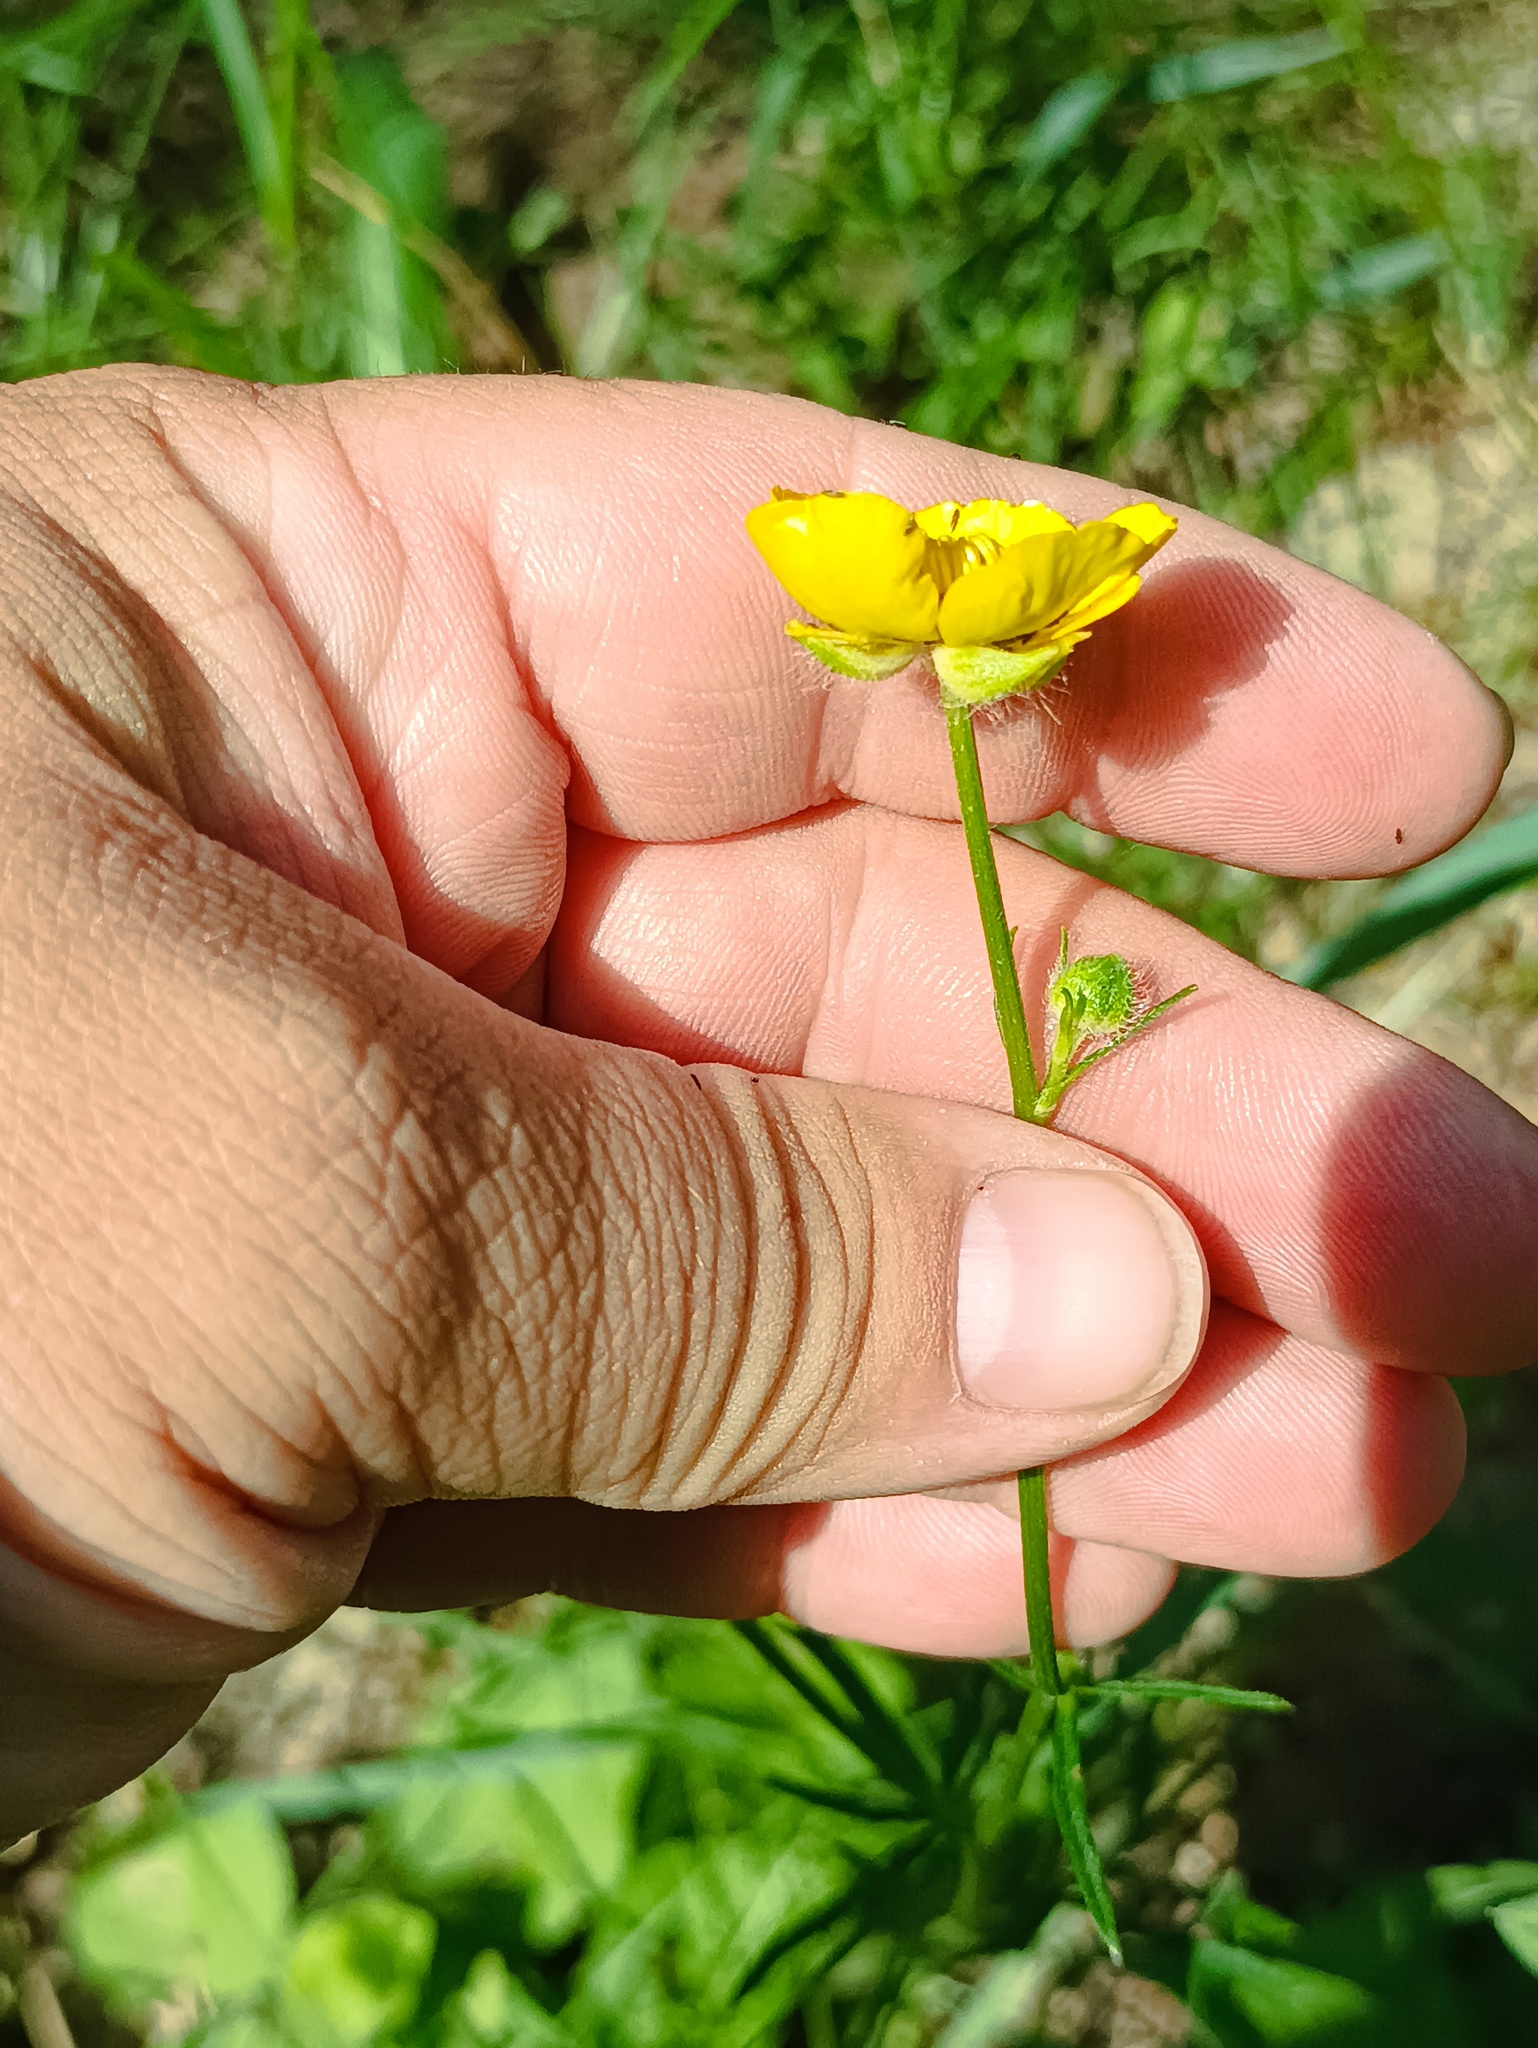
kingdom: Plantae
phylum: Tracheophyta
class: Magnoliopsida
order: Ranunculales
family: Ranunculaceae
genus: Ranunculus
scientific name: Ranunculus polyanthemos
